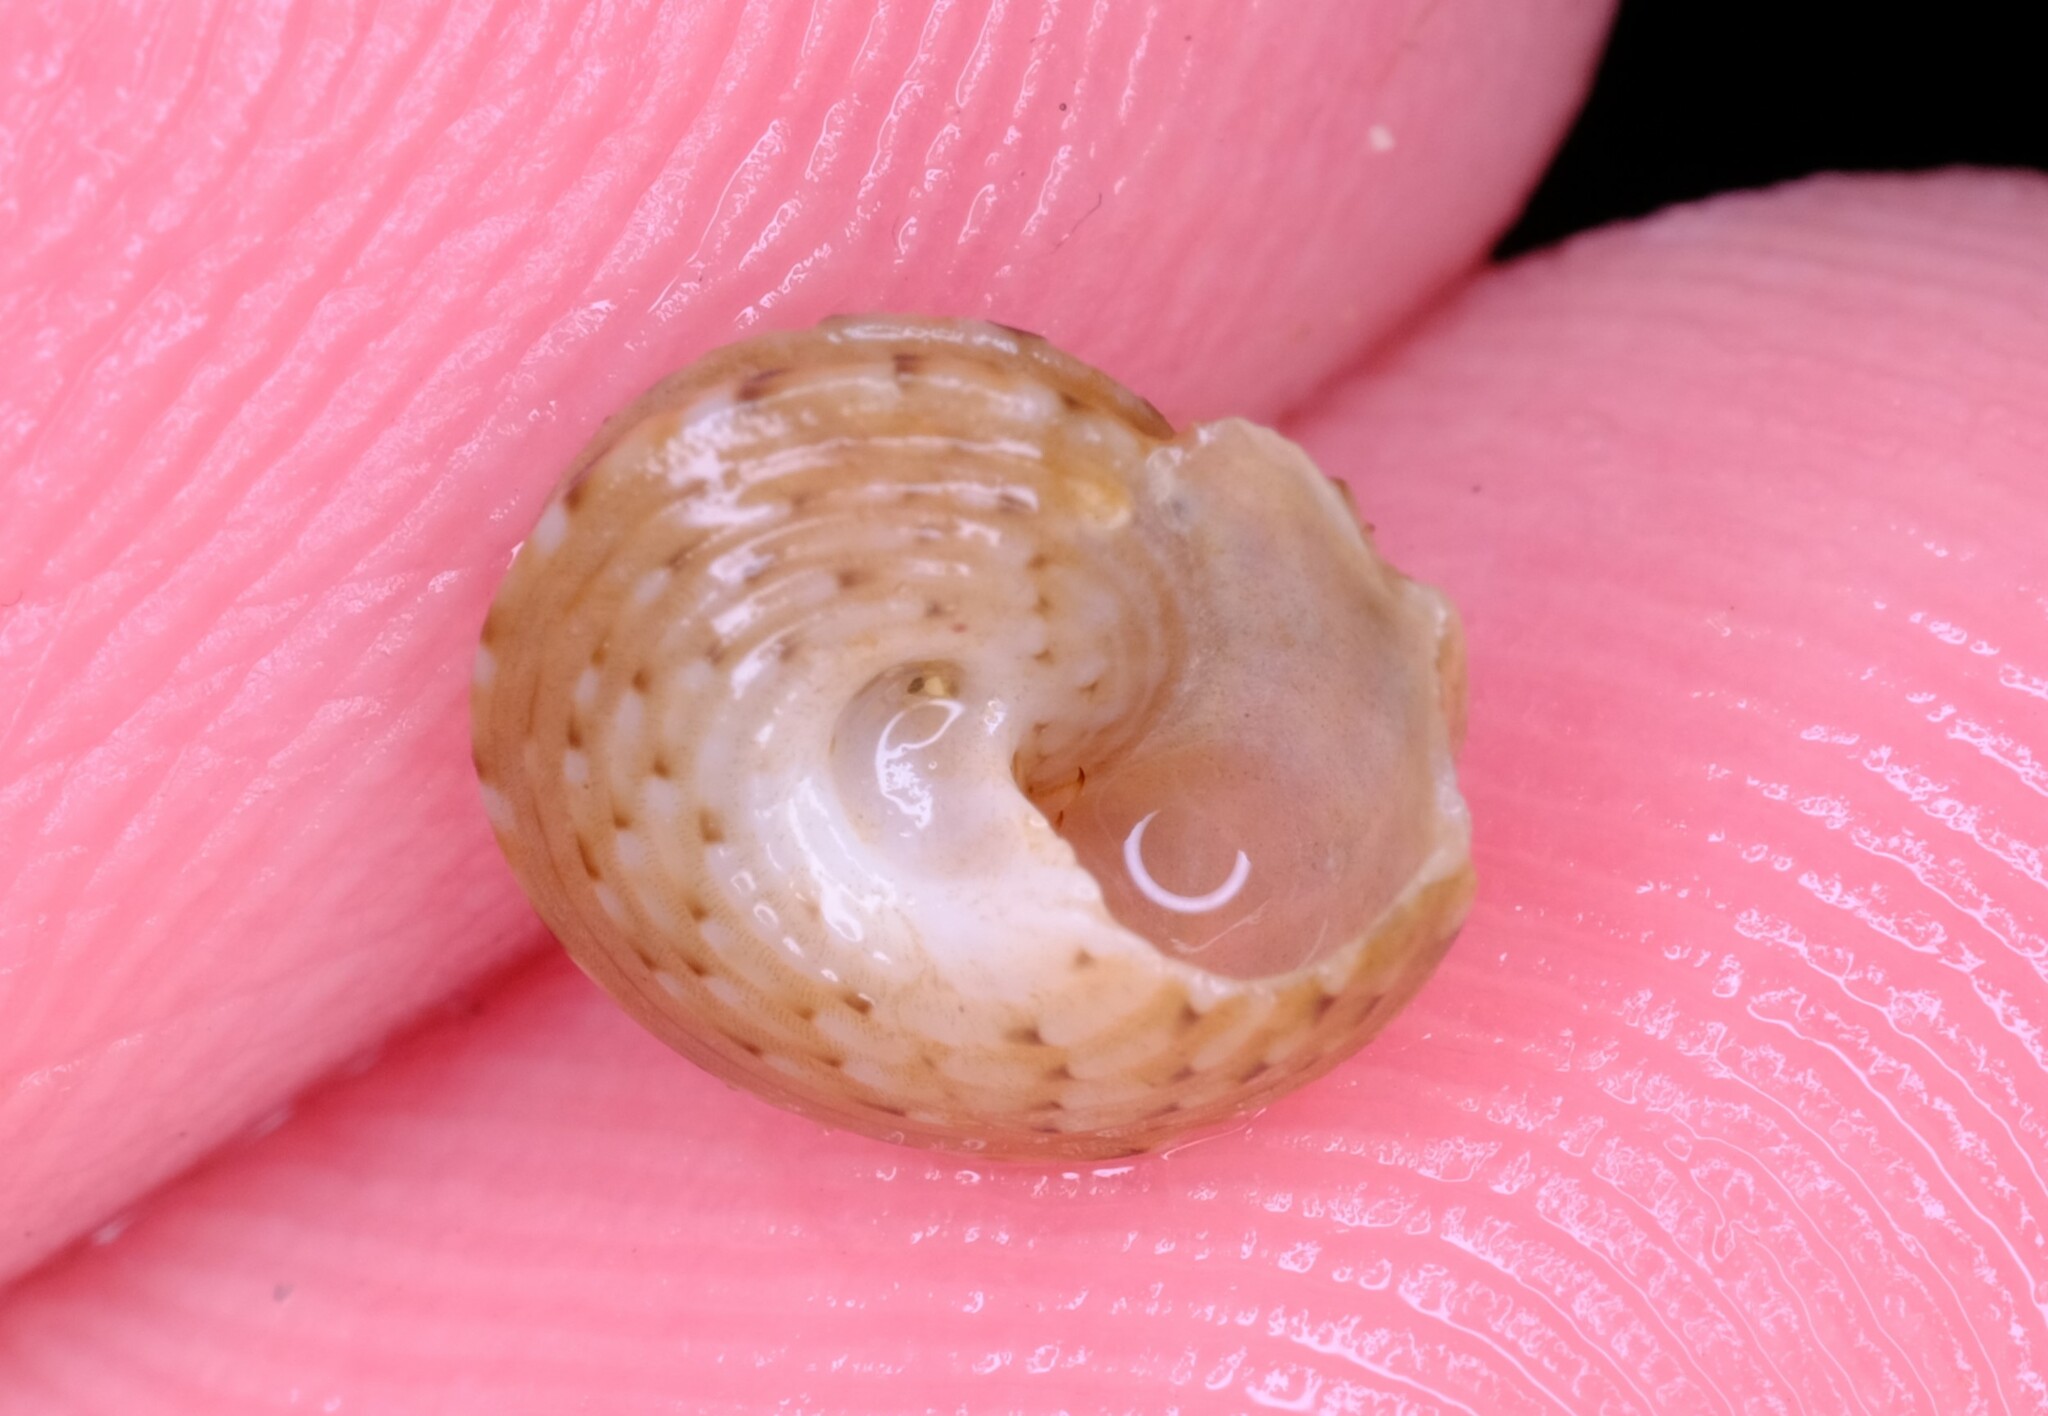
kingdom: Animalia
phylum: Mollusca
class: Gastropoda
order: Trochida
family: Trochidae
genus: Clanculus
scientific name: Clanculus plebejus
